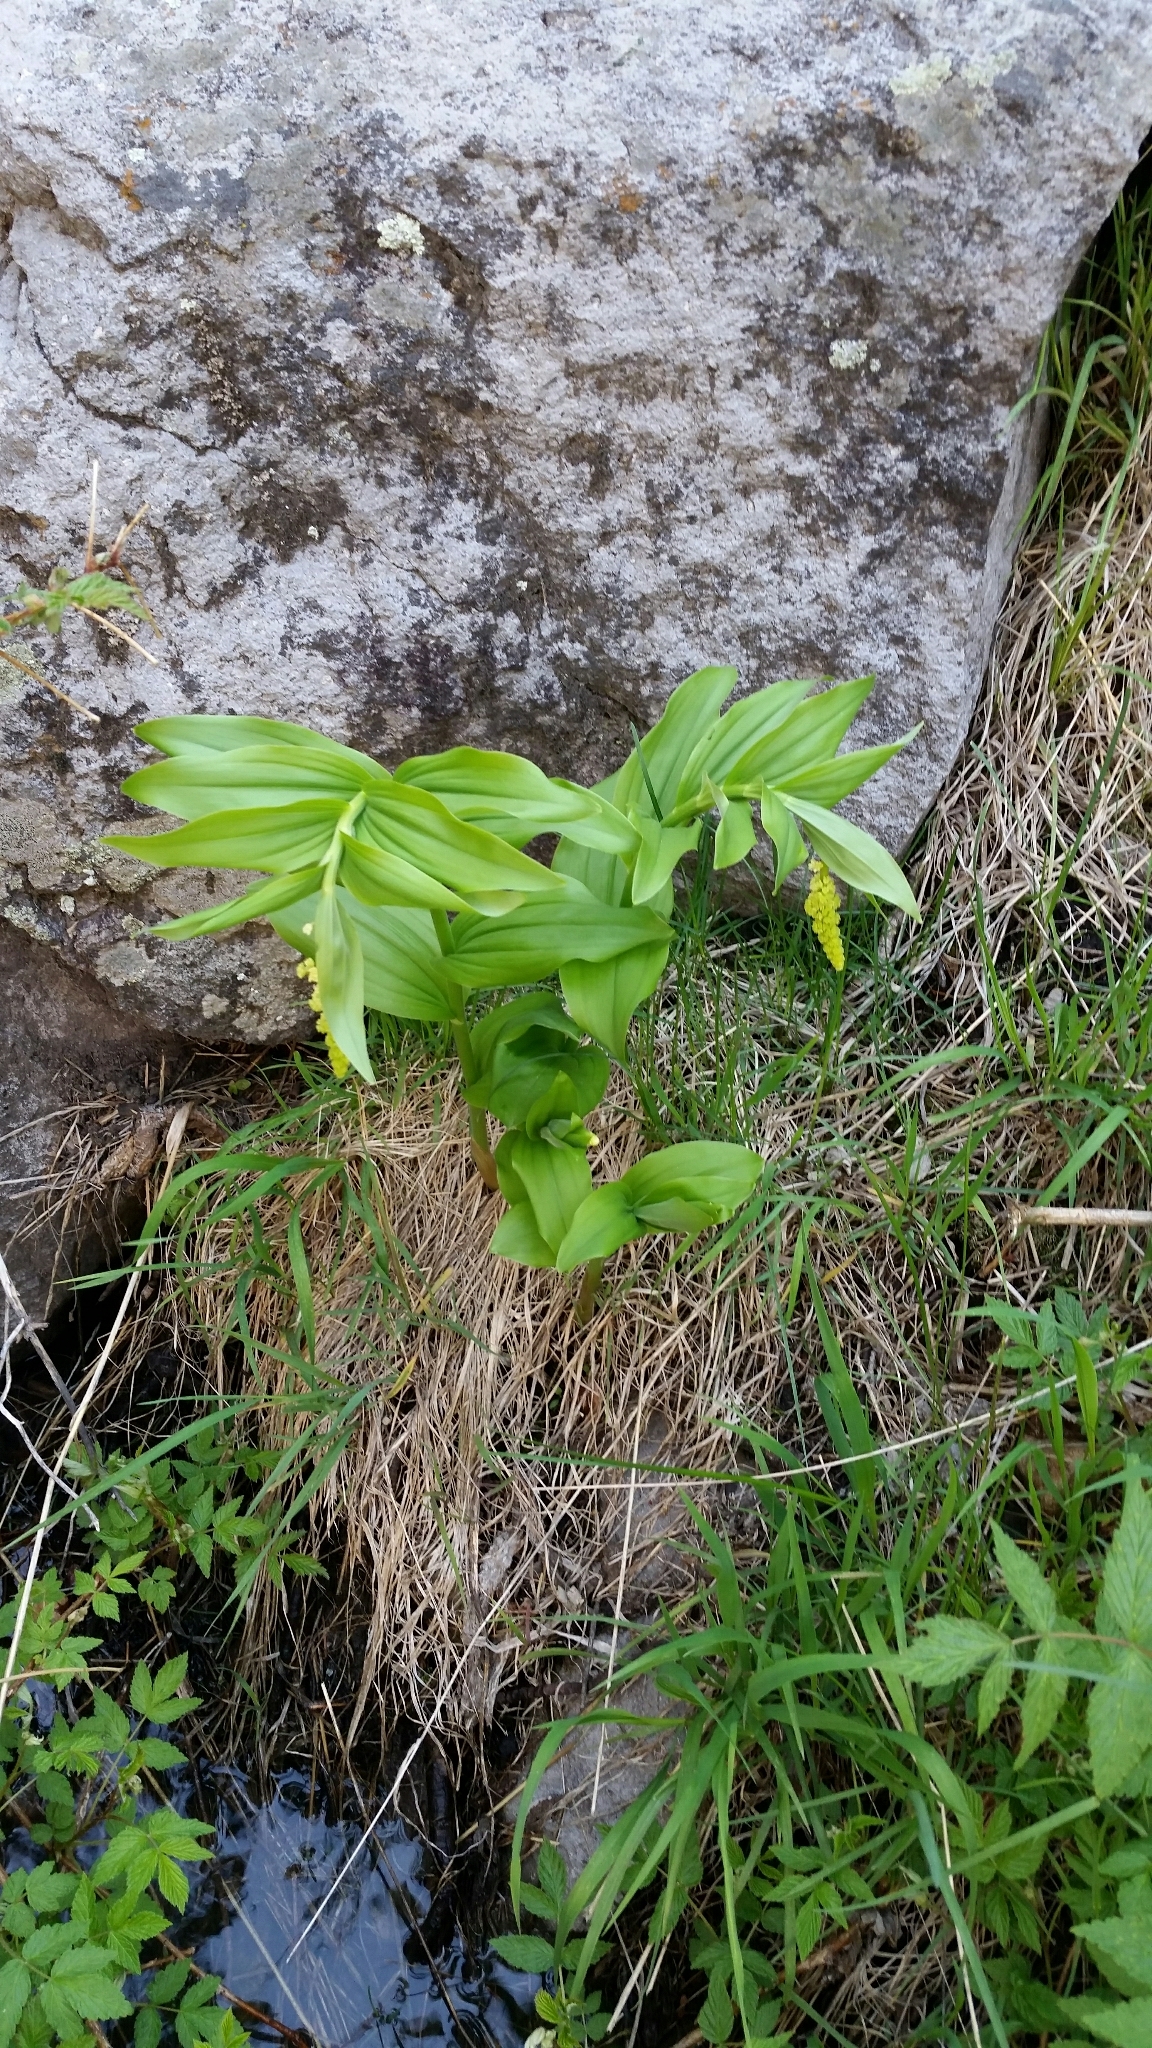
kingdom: Plantae
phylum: Tracheophyta
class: Liliopsida
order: Asparagales
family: Asparagaceae
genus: Maianthemum
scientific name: Maianthemum racemosum
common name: False spikenard
